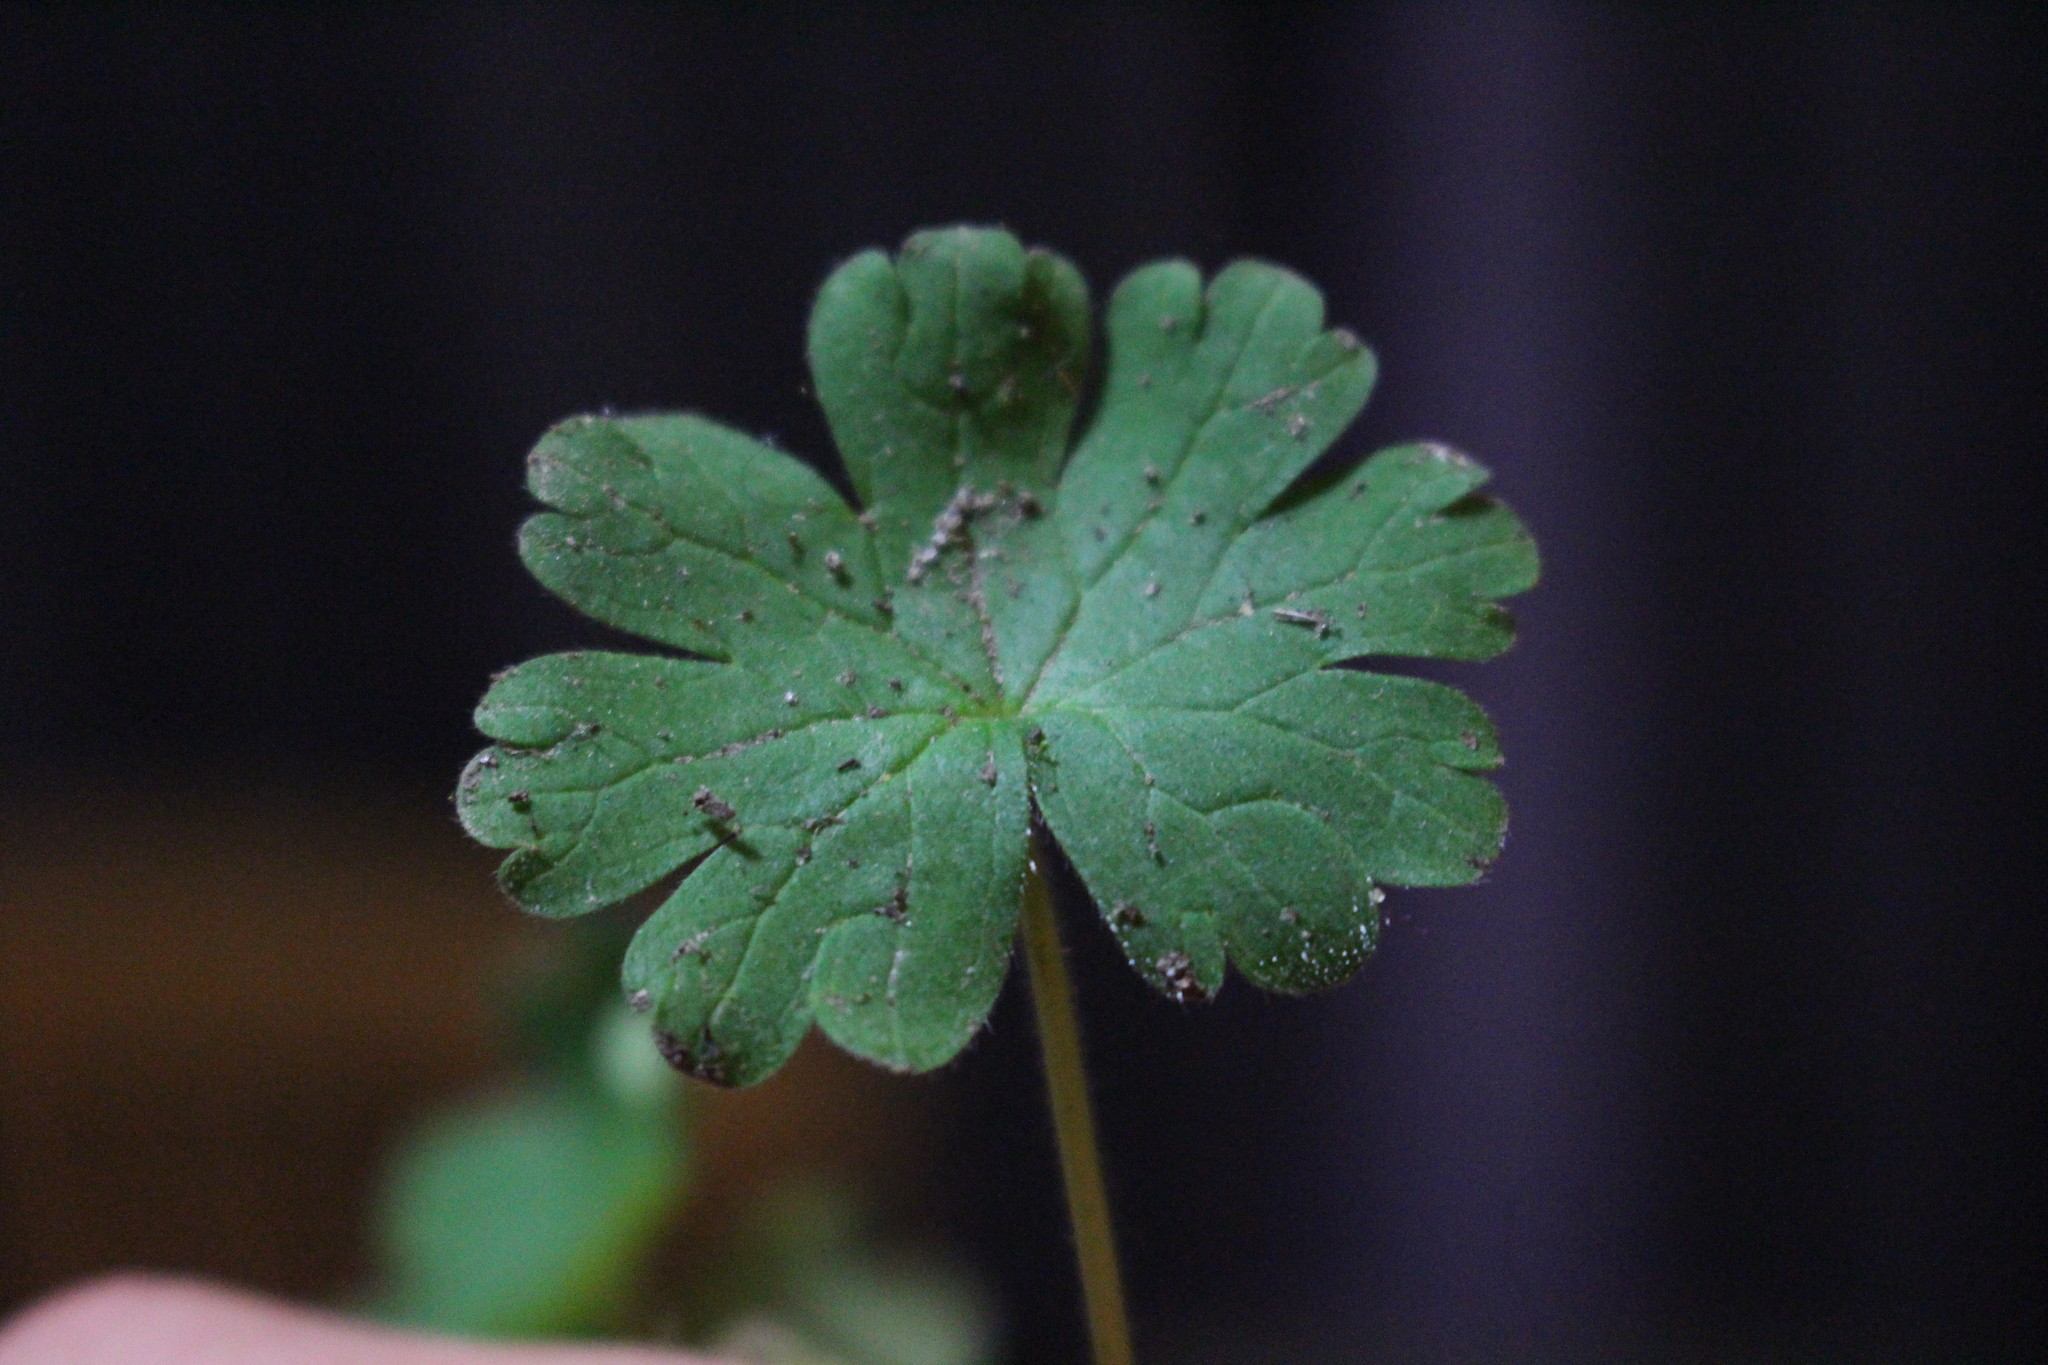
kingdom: Plantae
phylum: Tracheophyta
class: Magnoliopsida
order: Geraniales
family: Geraniaceae
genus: Geranium
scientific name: Geranium molle
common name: Dove's-foot crane's-bill
